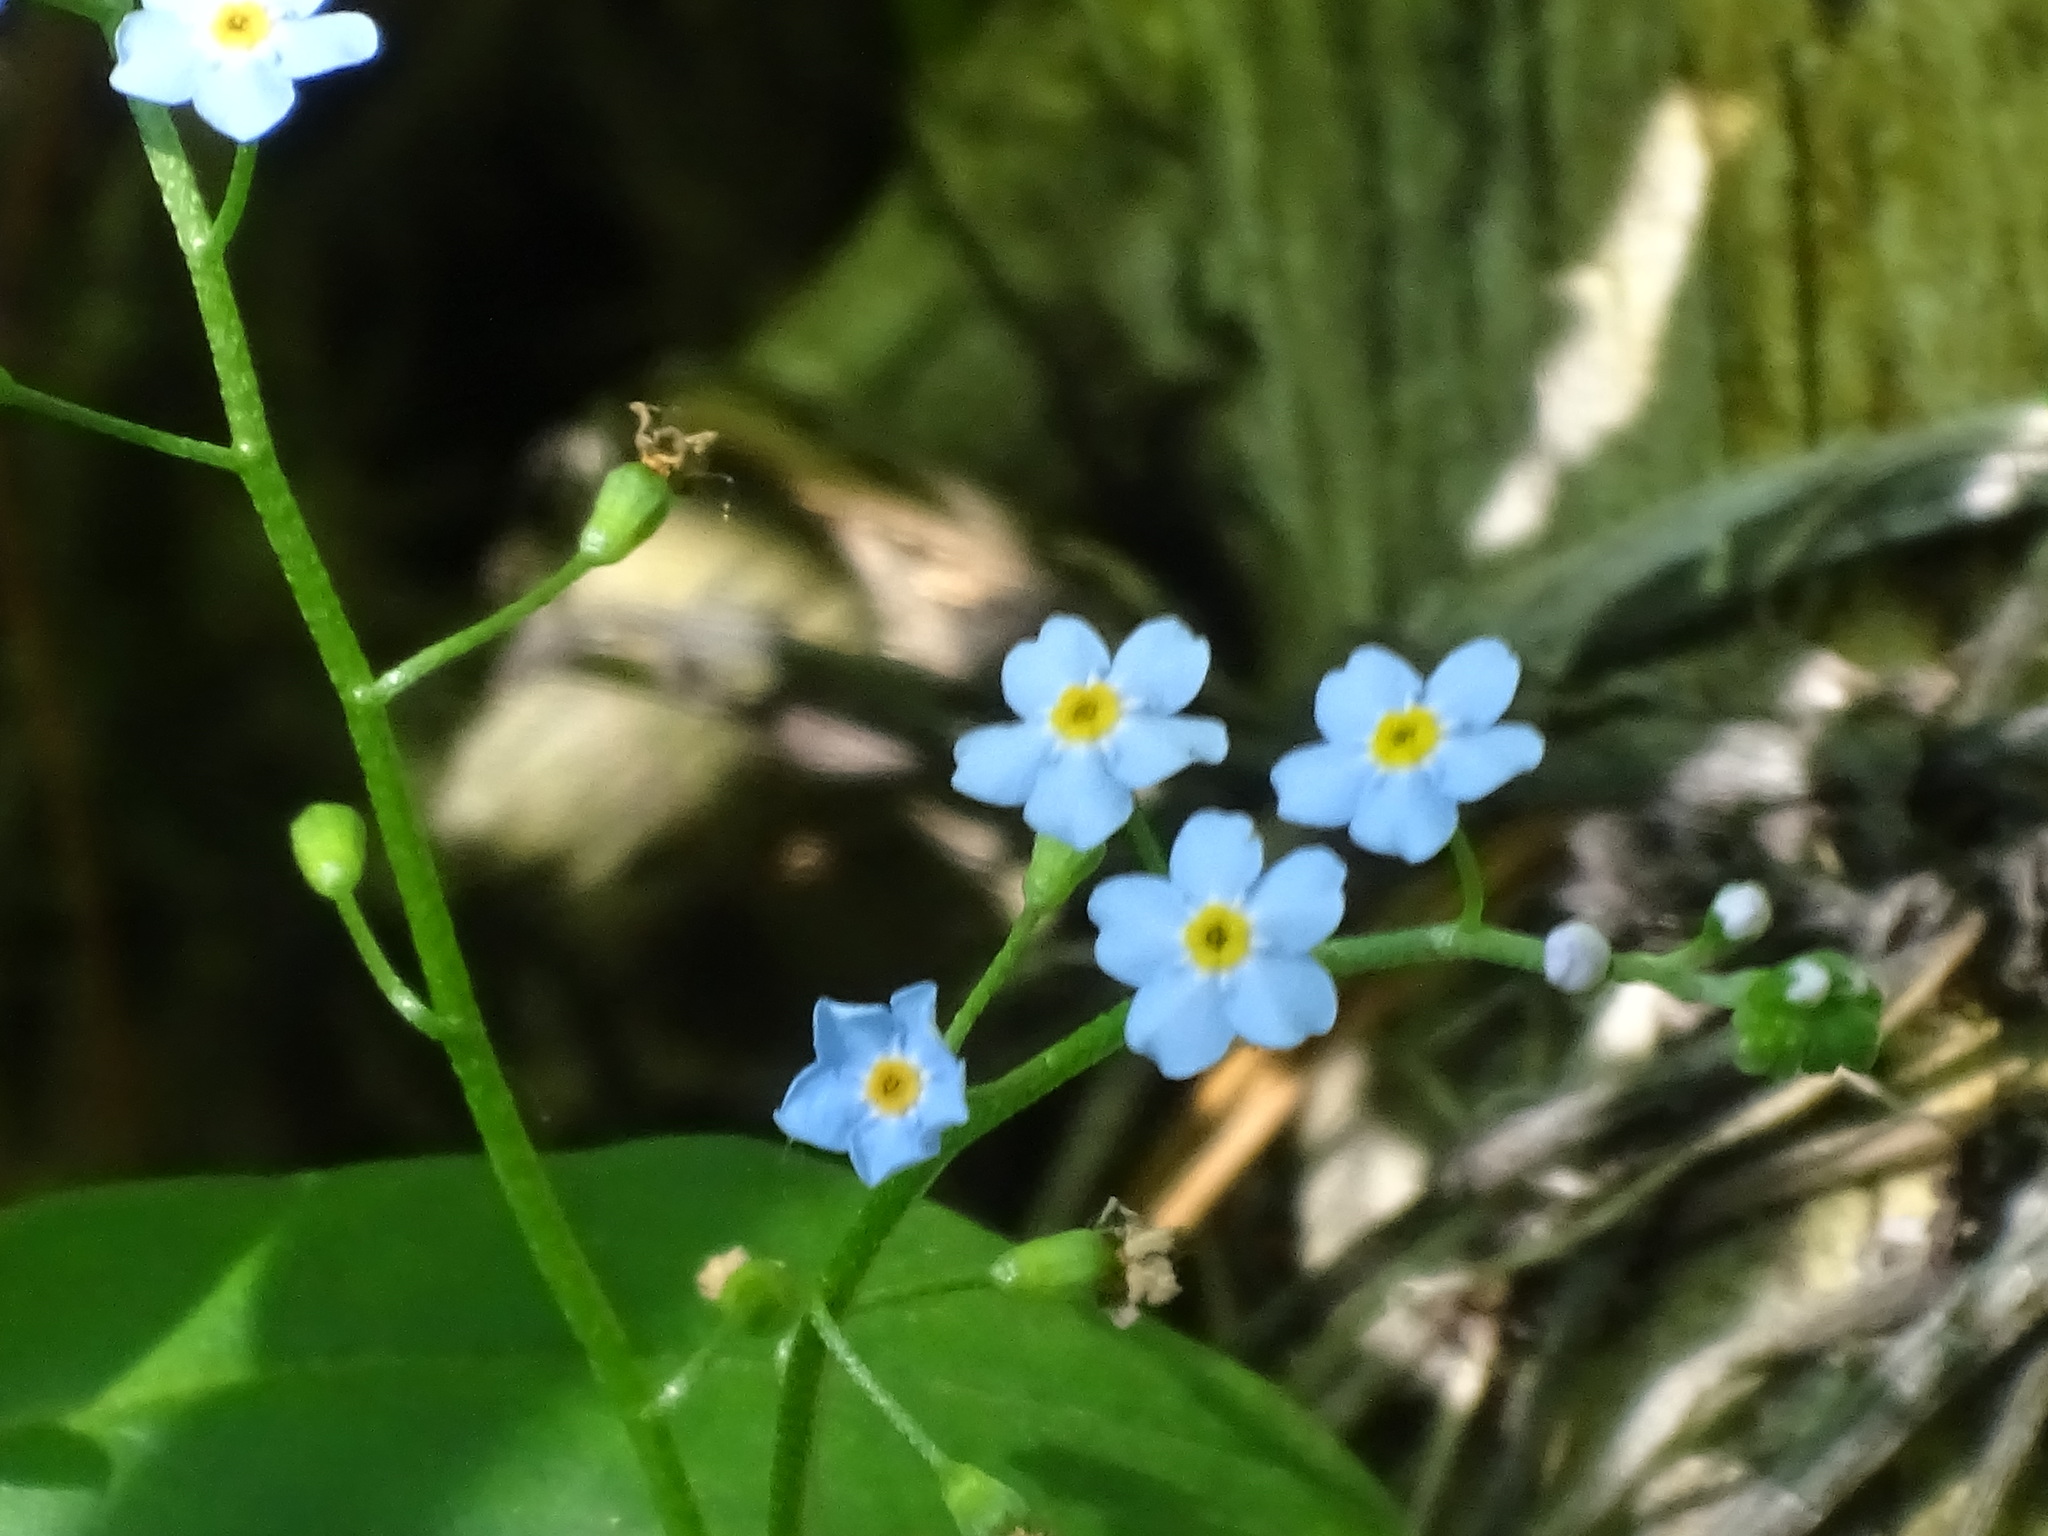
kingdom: Plantae
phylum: Tracheophyta
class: Magnoliopsida
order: Boraginales
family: Boraginaceae
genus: Myosotis
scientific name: Myosotis scorpioides
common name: Water forget-me-not
